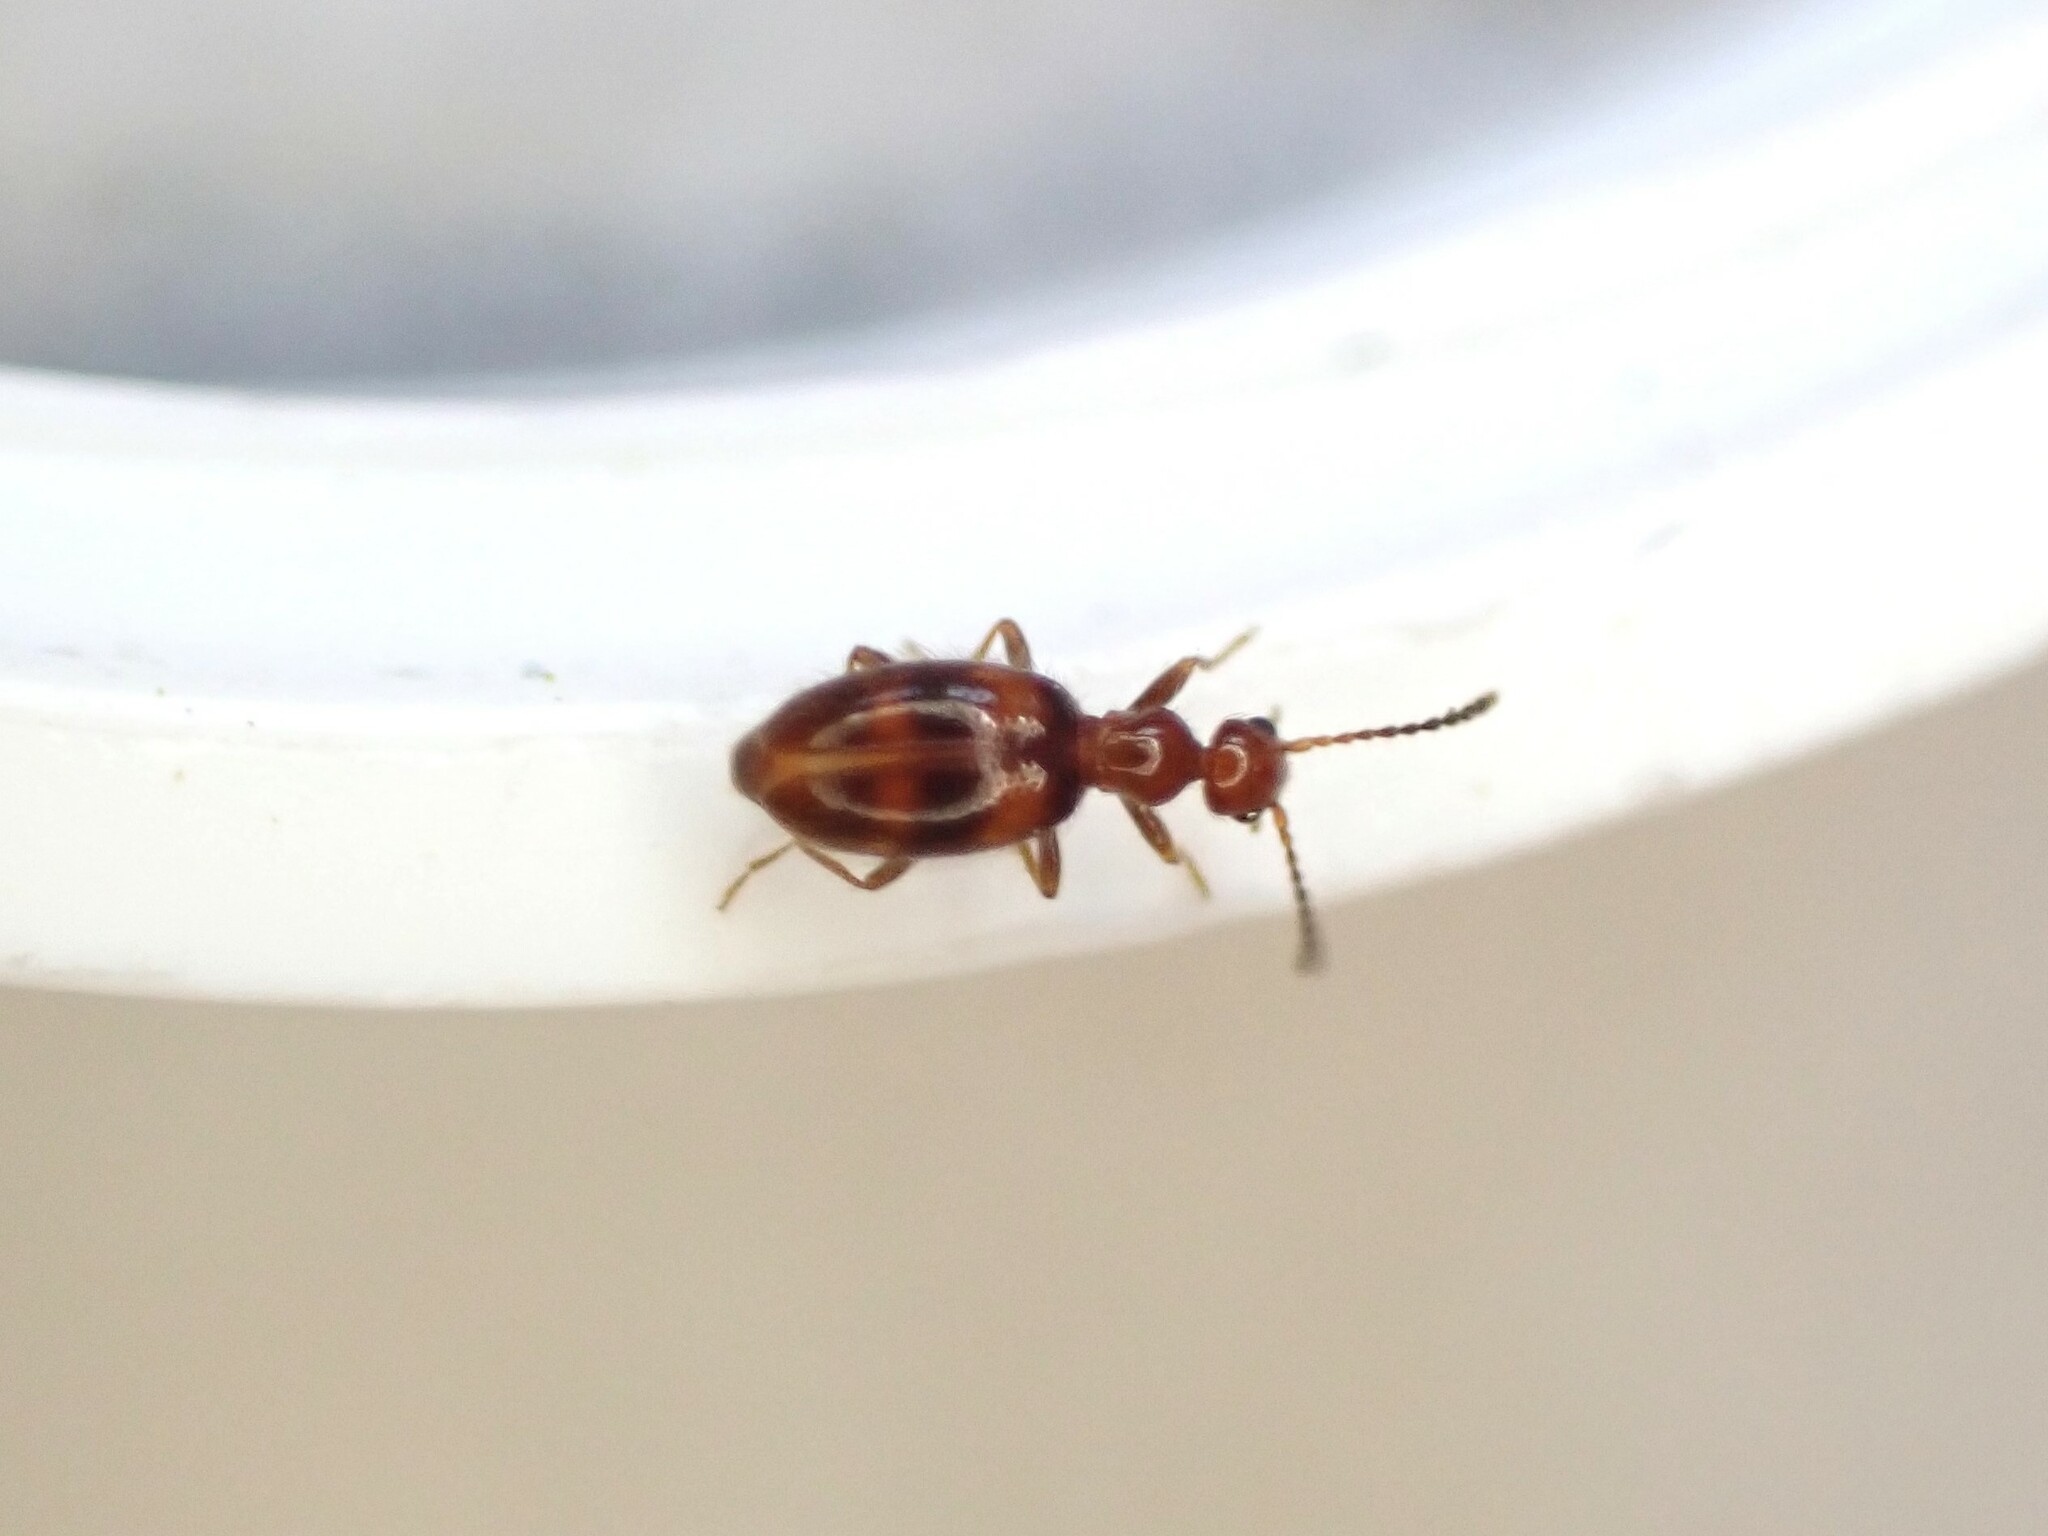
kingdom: Animalia
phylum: Arthropoda
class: Insecta
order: Coleoptera
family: Anthicidae
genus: Sapintus
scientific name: Sapintus aucklandensis
